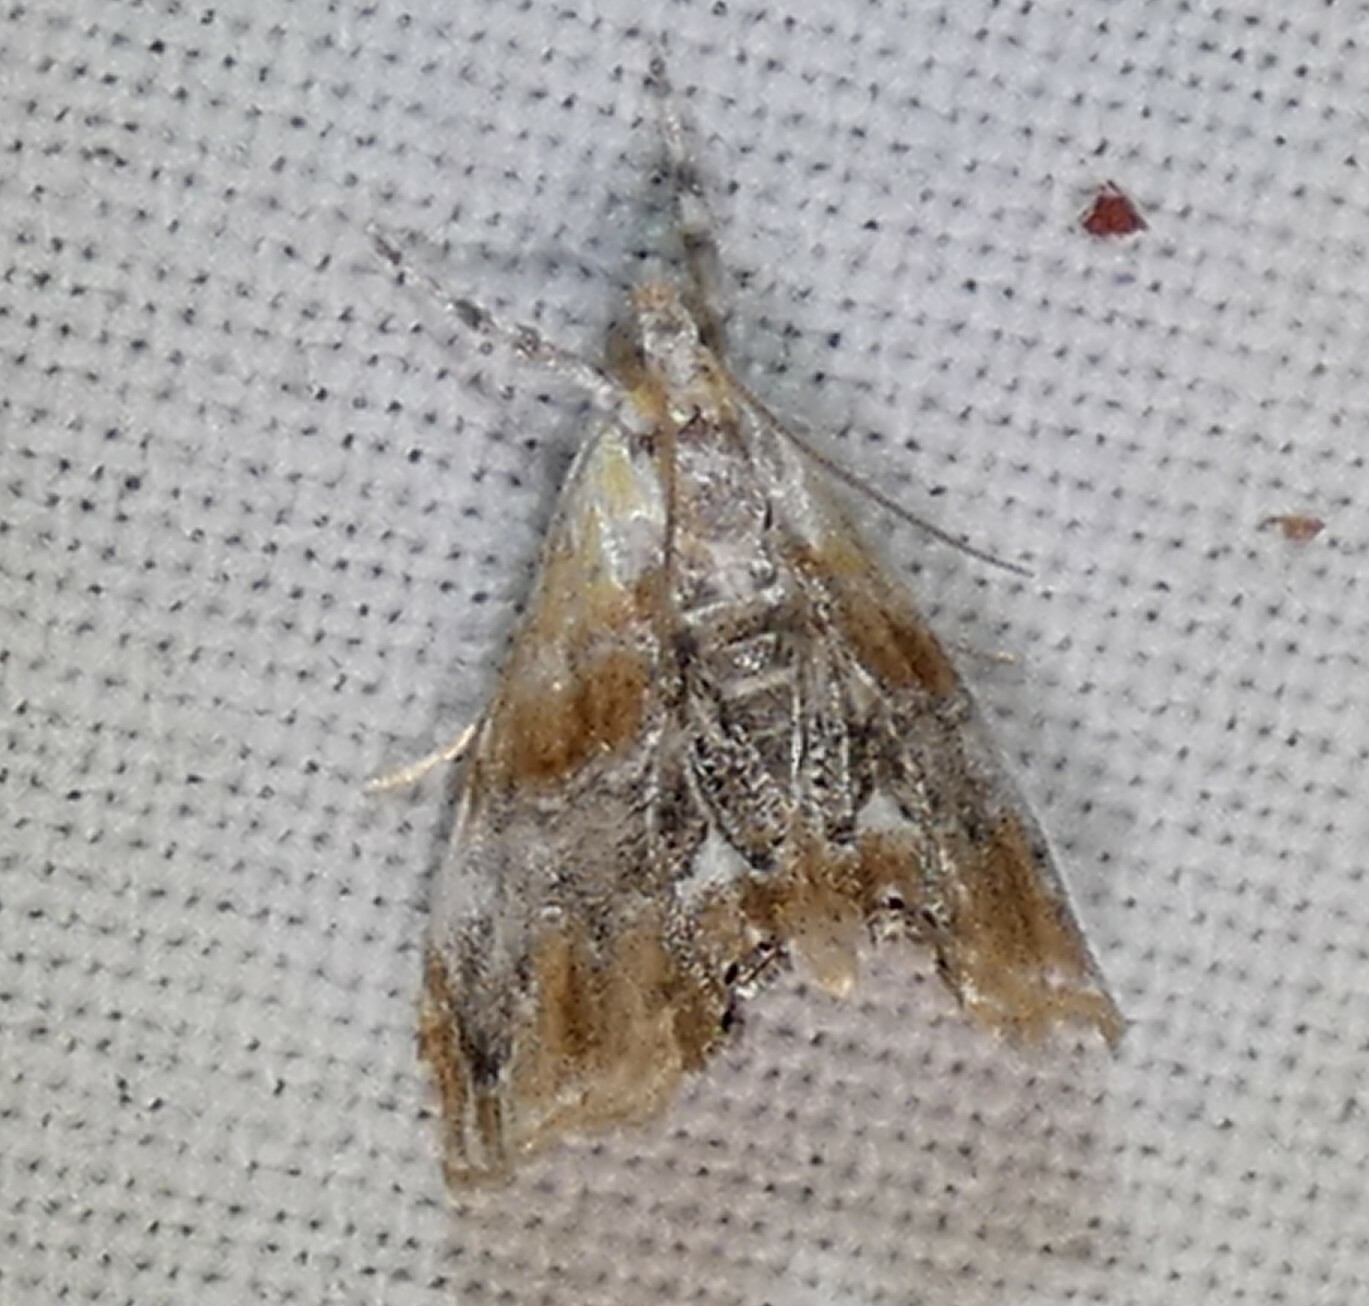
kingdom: Animalia
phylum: Arthropoda
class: Insecta
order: Lepidoptera
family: Crambidae
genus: Dicymolomia
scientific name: Dicymolomia julianalis
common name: Julia's dicymolomia moth
